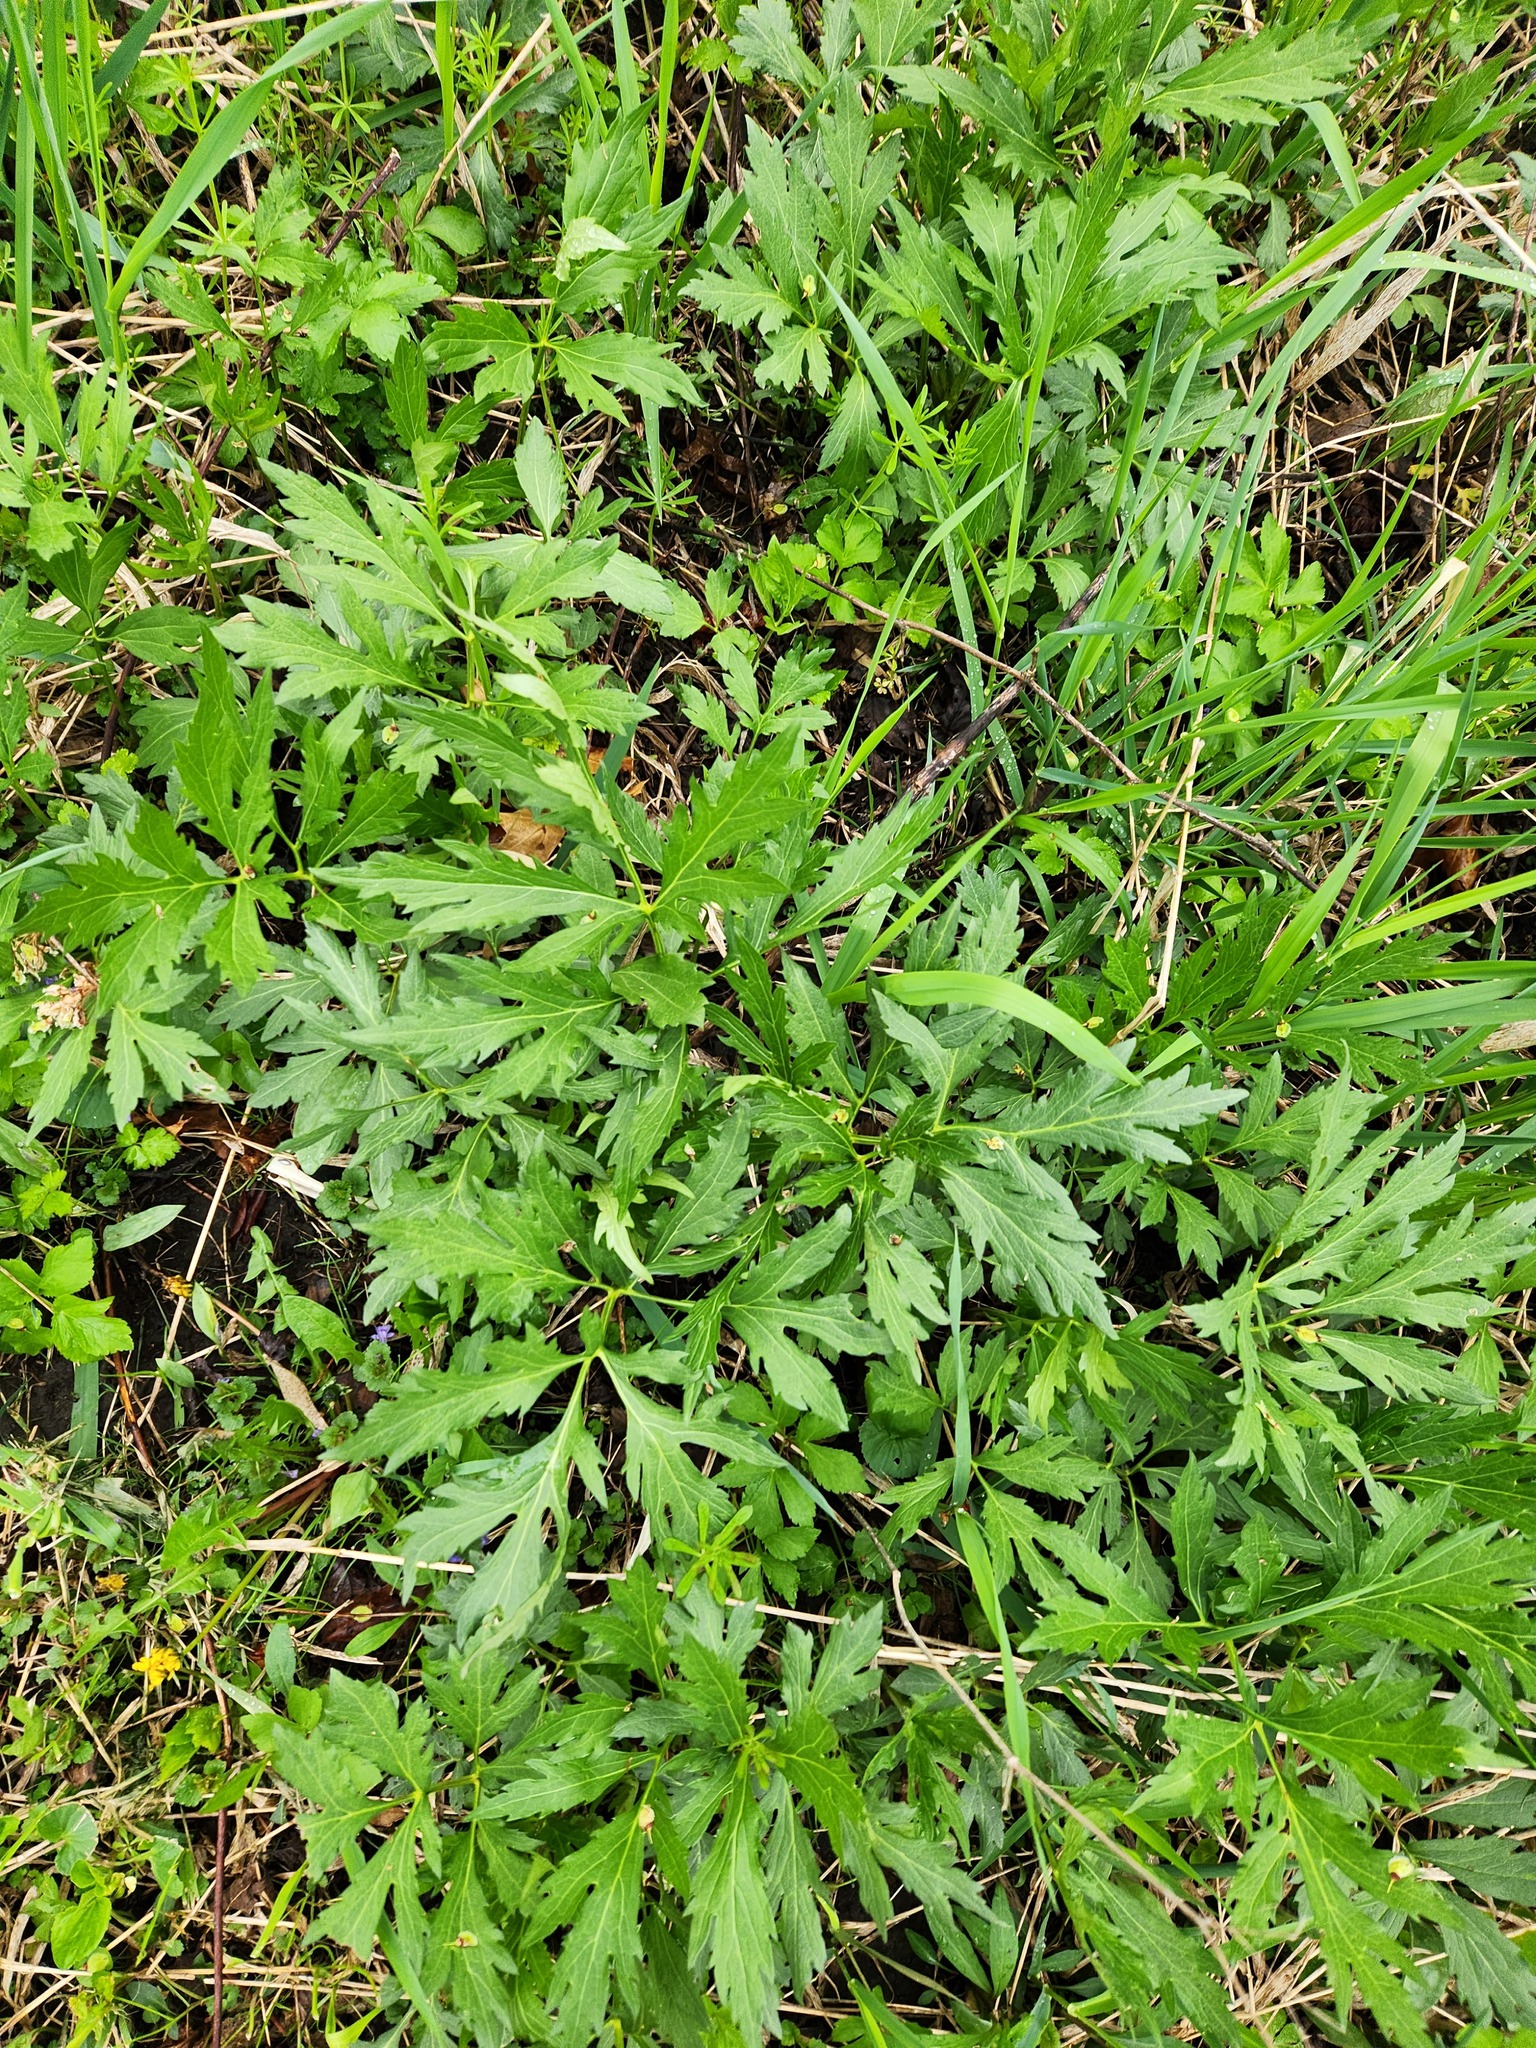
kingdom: Plantae
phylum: Tracheophyta
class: Magnoliopsida
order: Asterales
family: Asteraceae
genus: Rudbeckia
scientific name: Rudbeckia laciniata
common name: Coneflower
